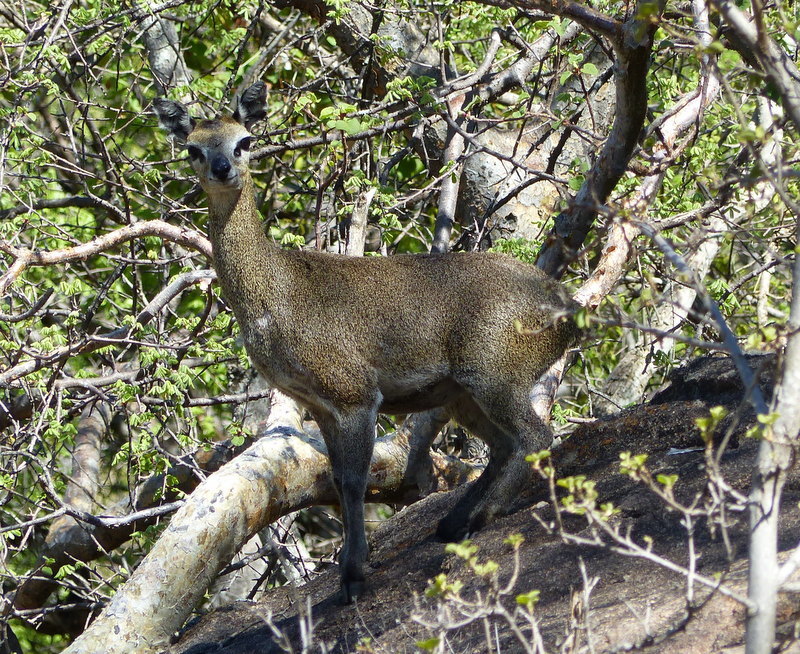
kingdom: Animalia
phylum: Chordata
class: Mammalia
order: Artiodactyla
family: Bovidae
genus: Oreotragus
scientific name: Oreotragus oreotragus
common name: Klipspringer
